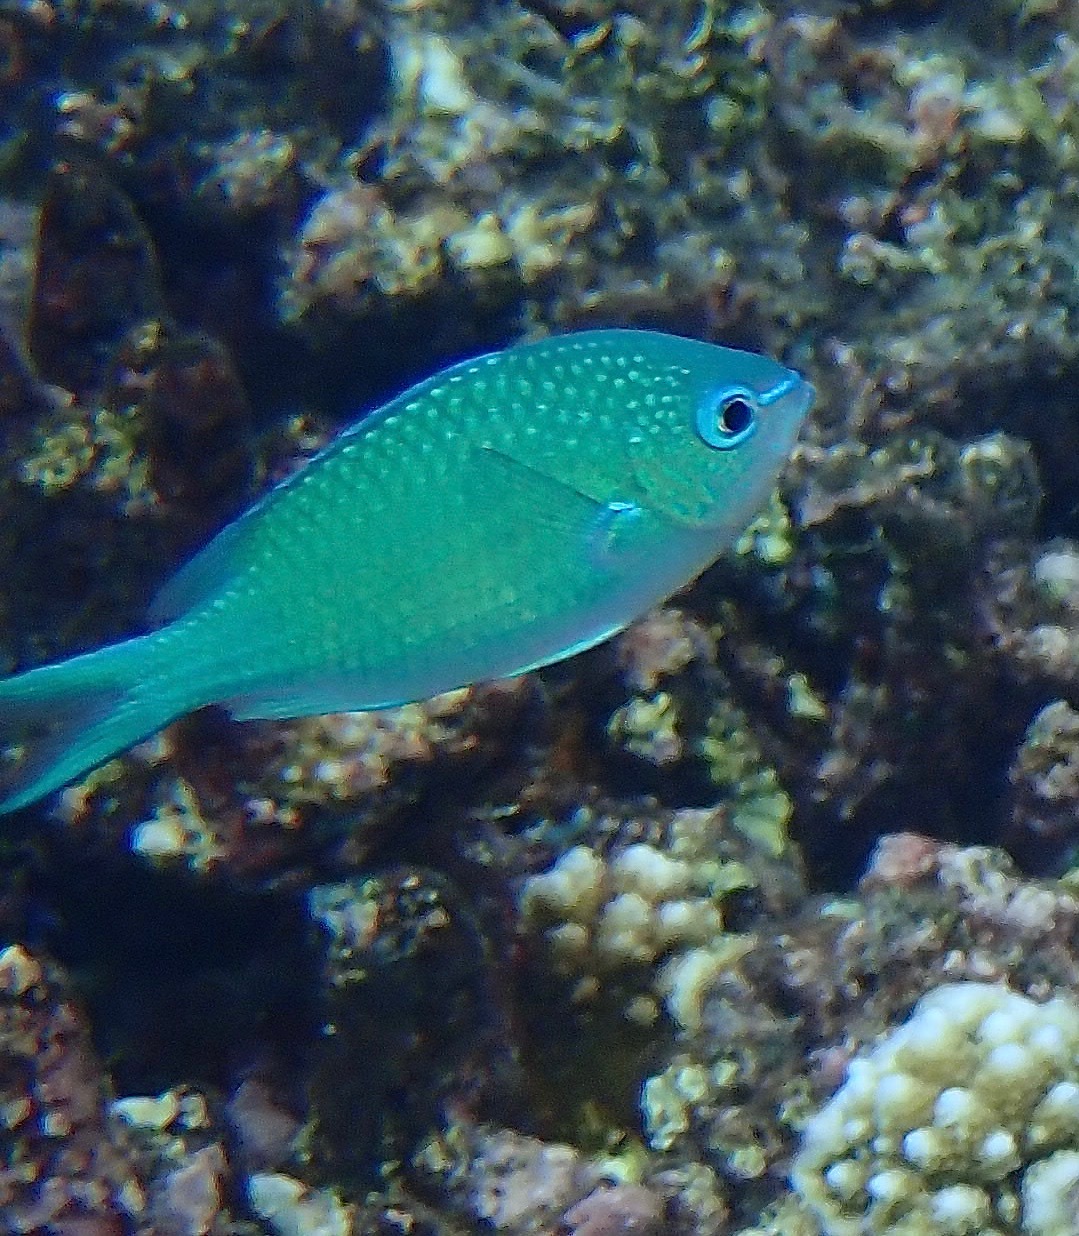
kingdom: Animalia
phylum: Chordata
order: Perciformes
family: Pomacentridae
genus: Chromis
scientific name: Chromis viridis
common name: Blue-green chromis
